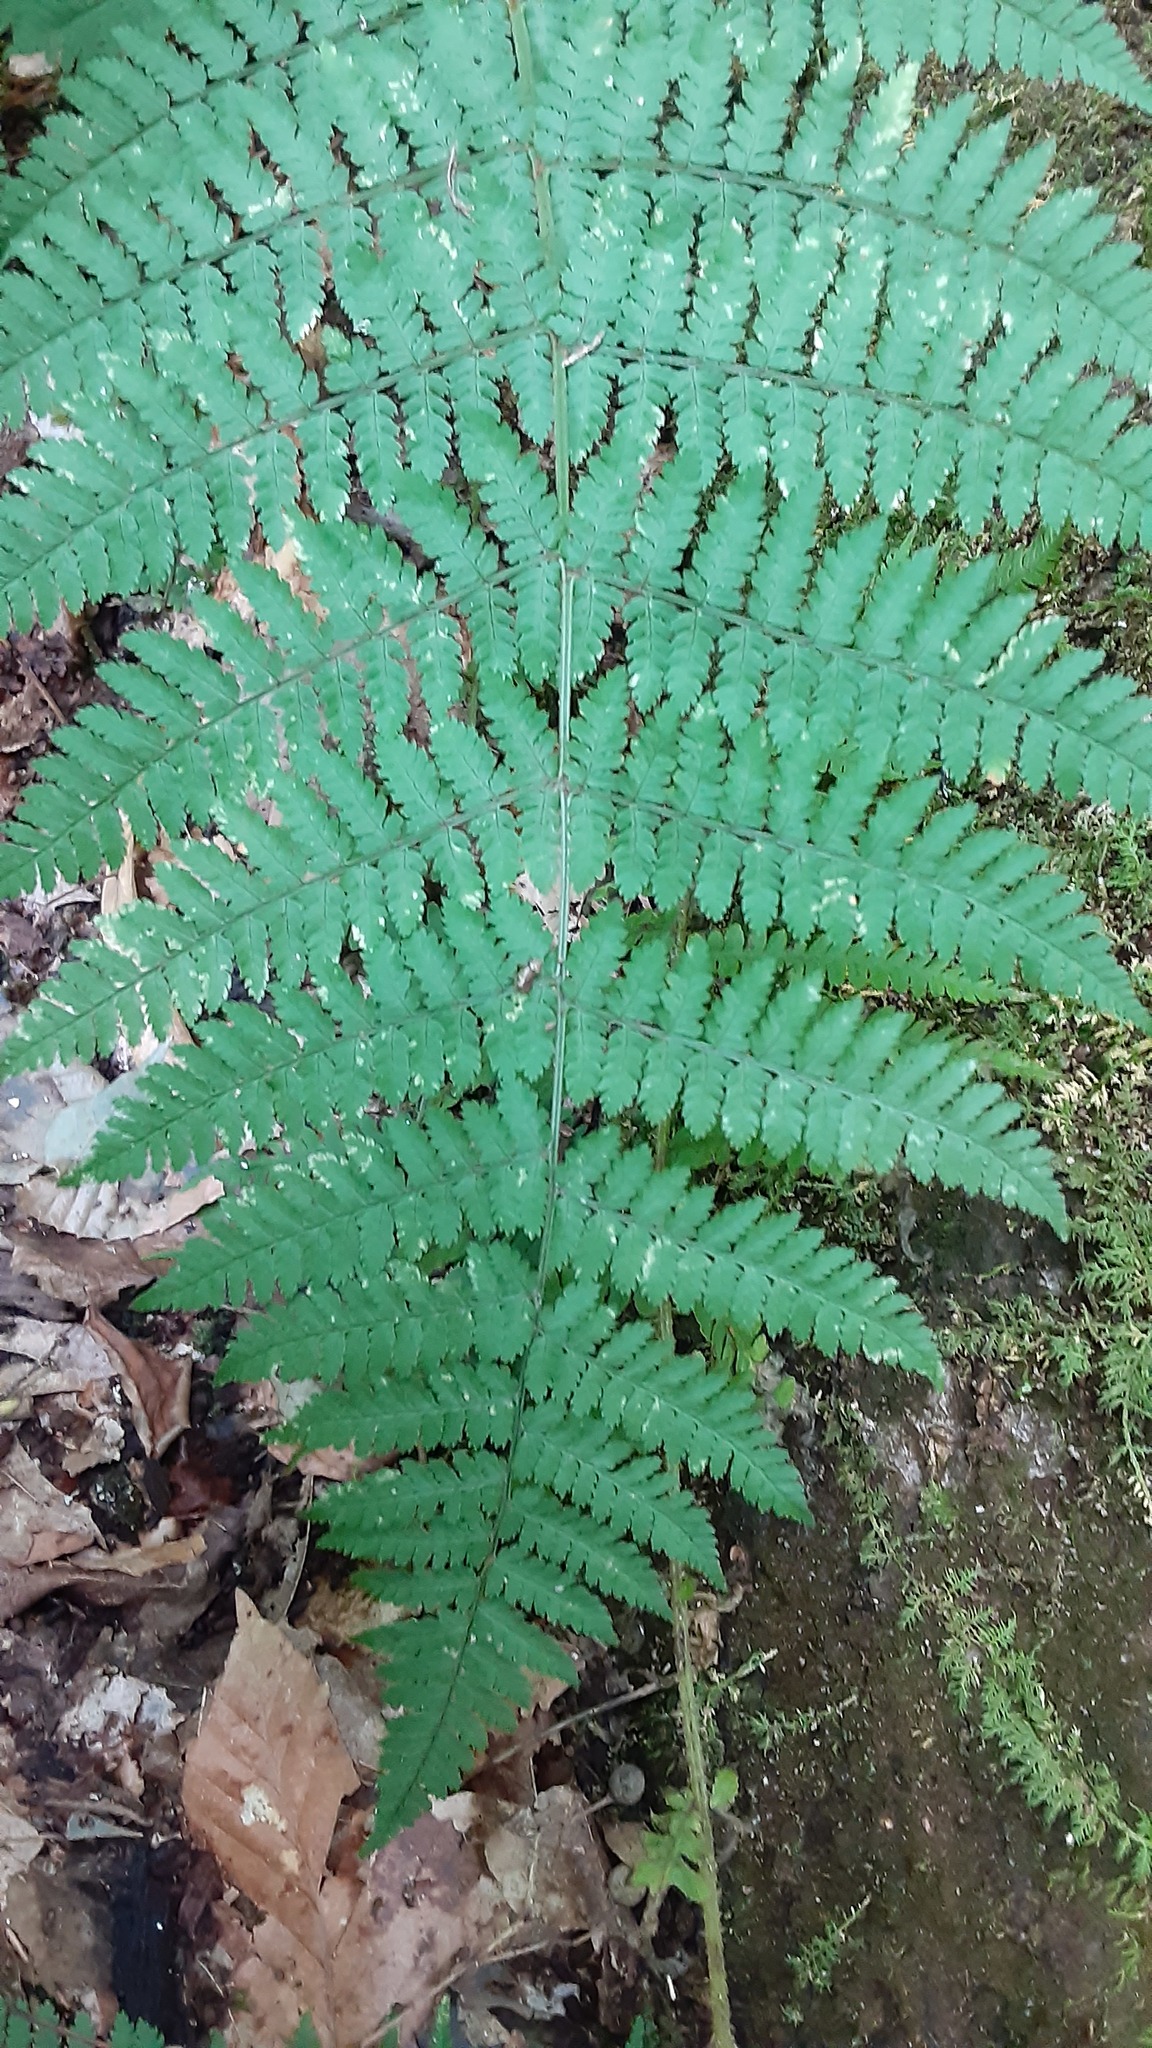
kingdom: Plantae
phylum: Tracheophyta
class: Polypodiopsida
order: Polypodiales
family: Dryopteridaceae
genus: Dryopteris
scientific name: Dryopteris intermedia
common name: Evergreen wood fern
